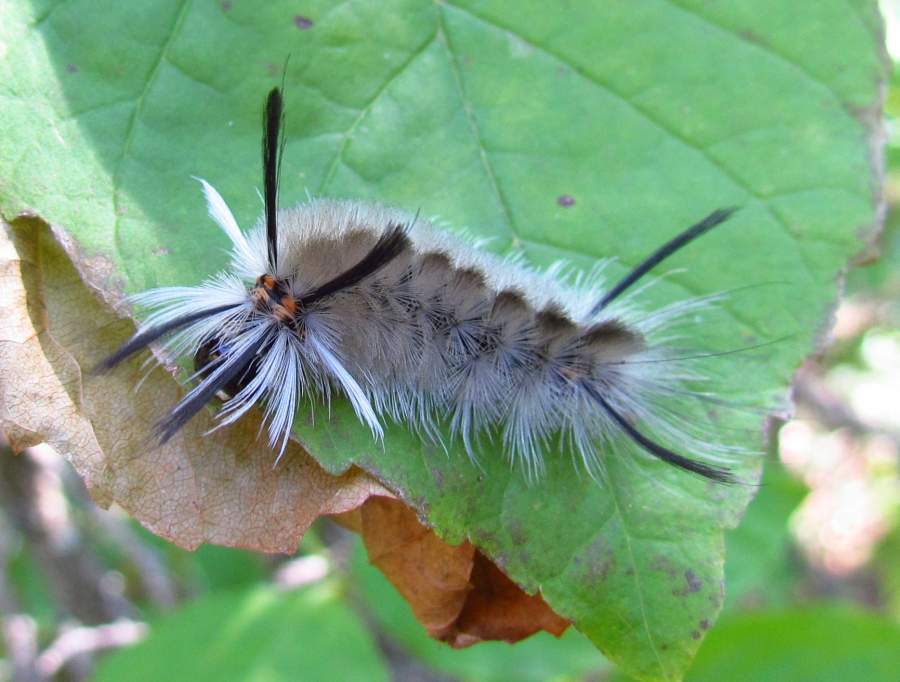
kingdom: Animalia
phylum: Arthropoda
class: Insecta
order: Lepidoptera
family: Erebidae
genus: Halysidota
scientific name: Halysidota tessellaris
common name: Banded tussock moth
